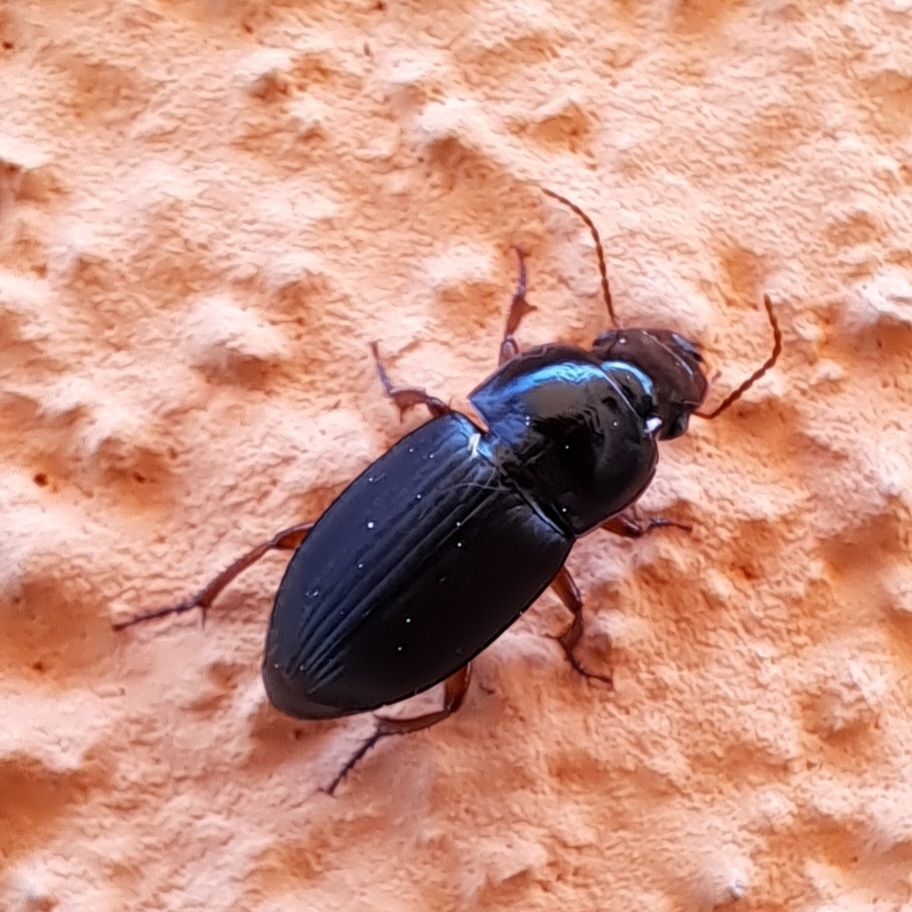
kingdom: Animalia
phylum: Arthropoda
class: Insecta
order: Coleoptera
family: Carabidae
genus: Harpalus
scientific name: Harpalus rubripes
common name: Red-legged harp ground beetle
